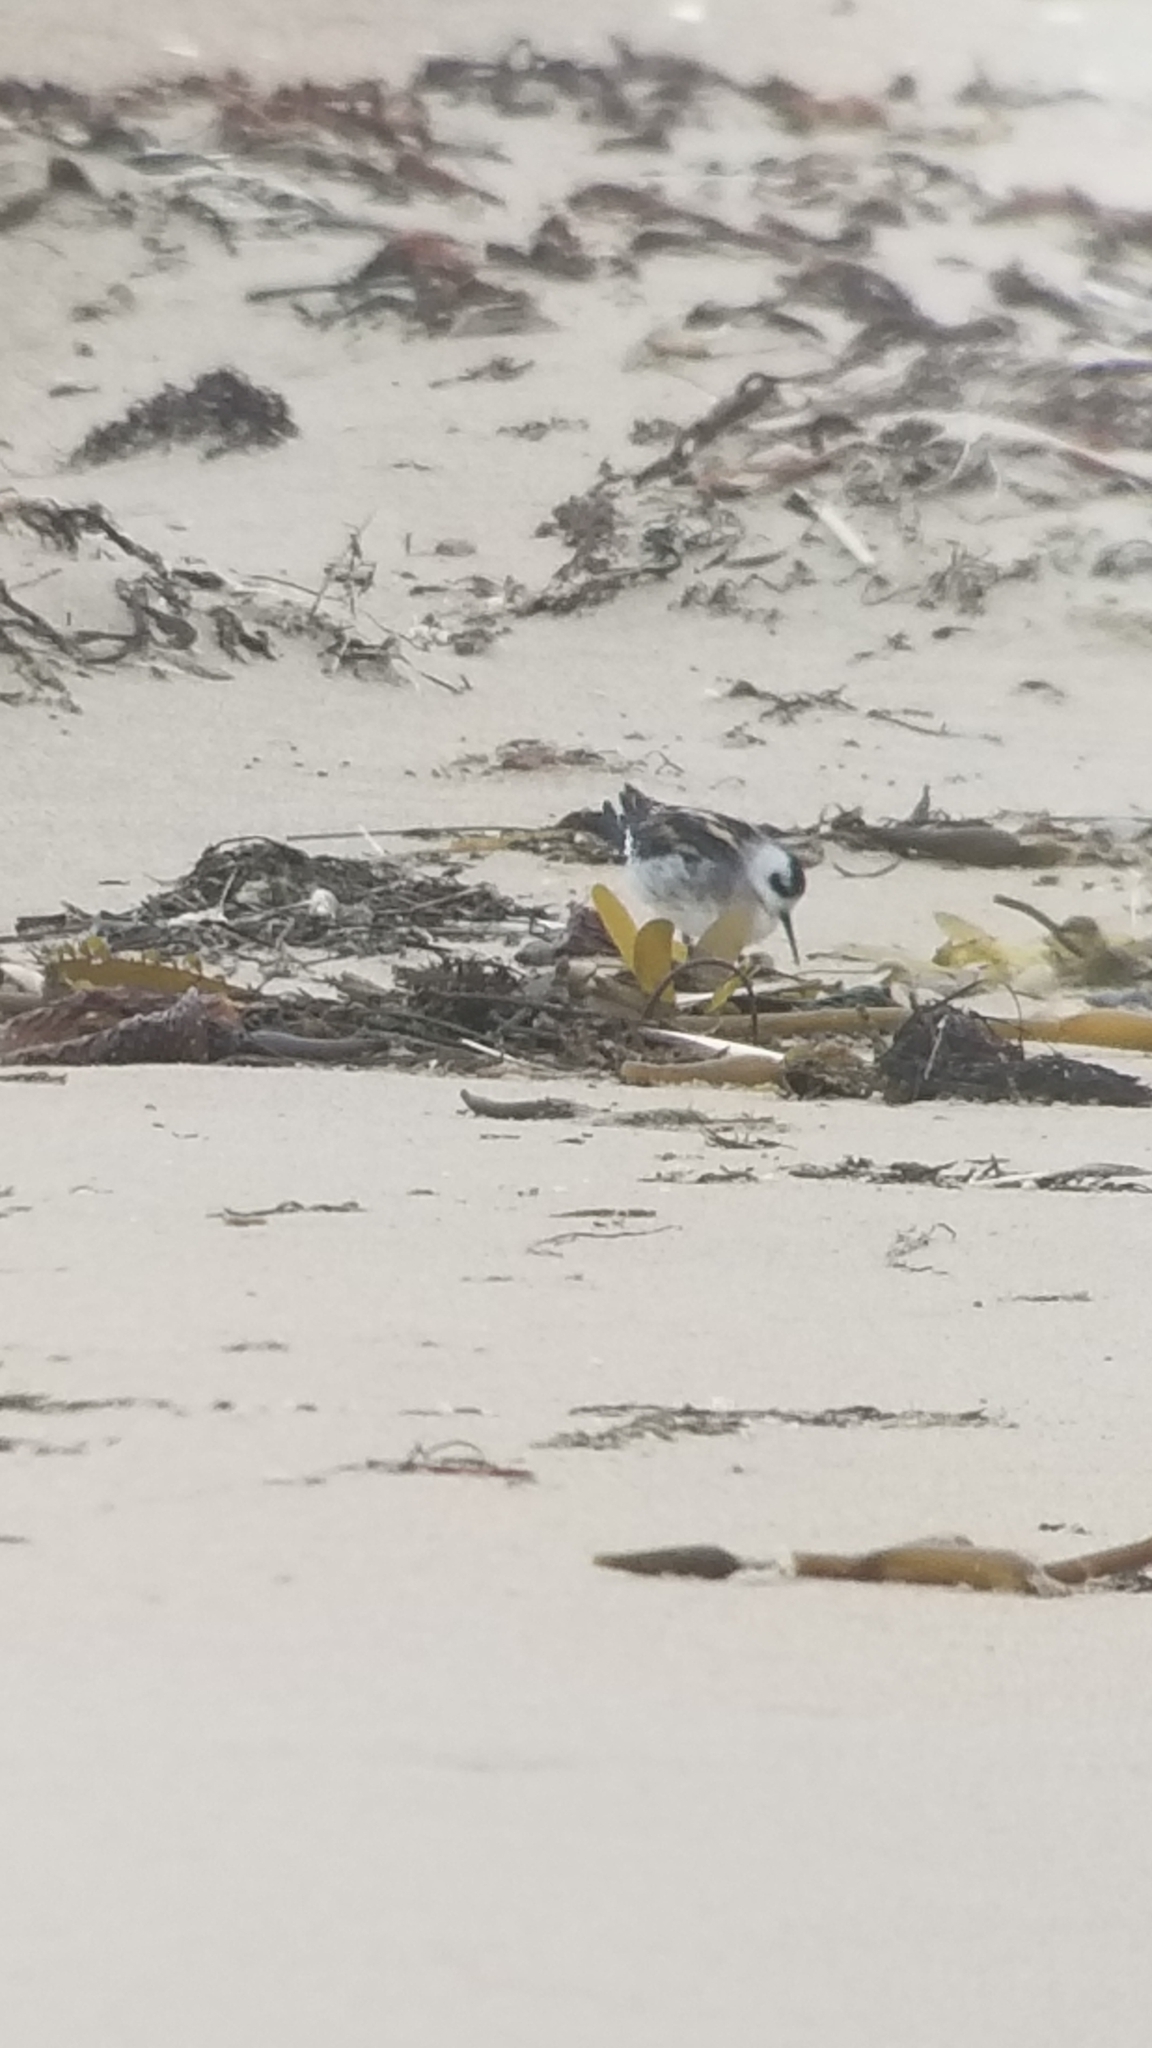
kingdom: Animalia
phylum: Chordata
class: Aves
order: Charadriiformes
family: Scolopacidae
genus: Phalaropus
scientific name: Phalaropus lobatus
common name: Red-necked phalarope
